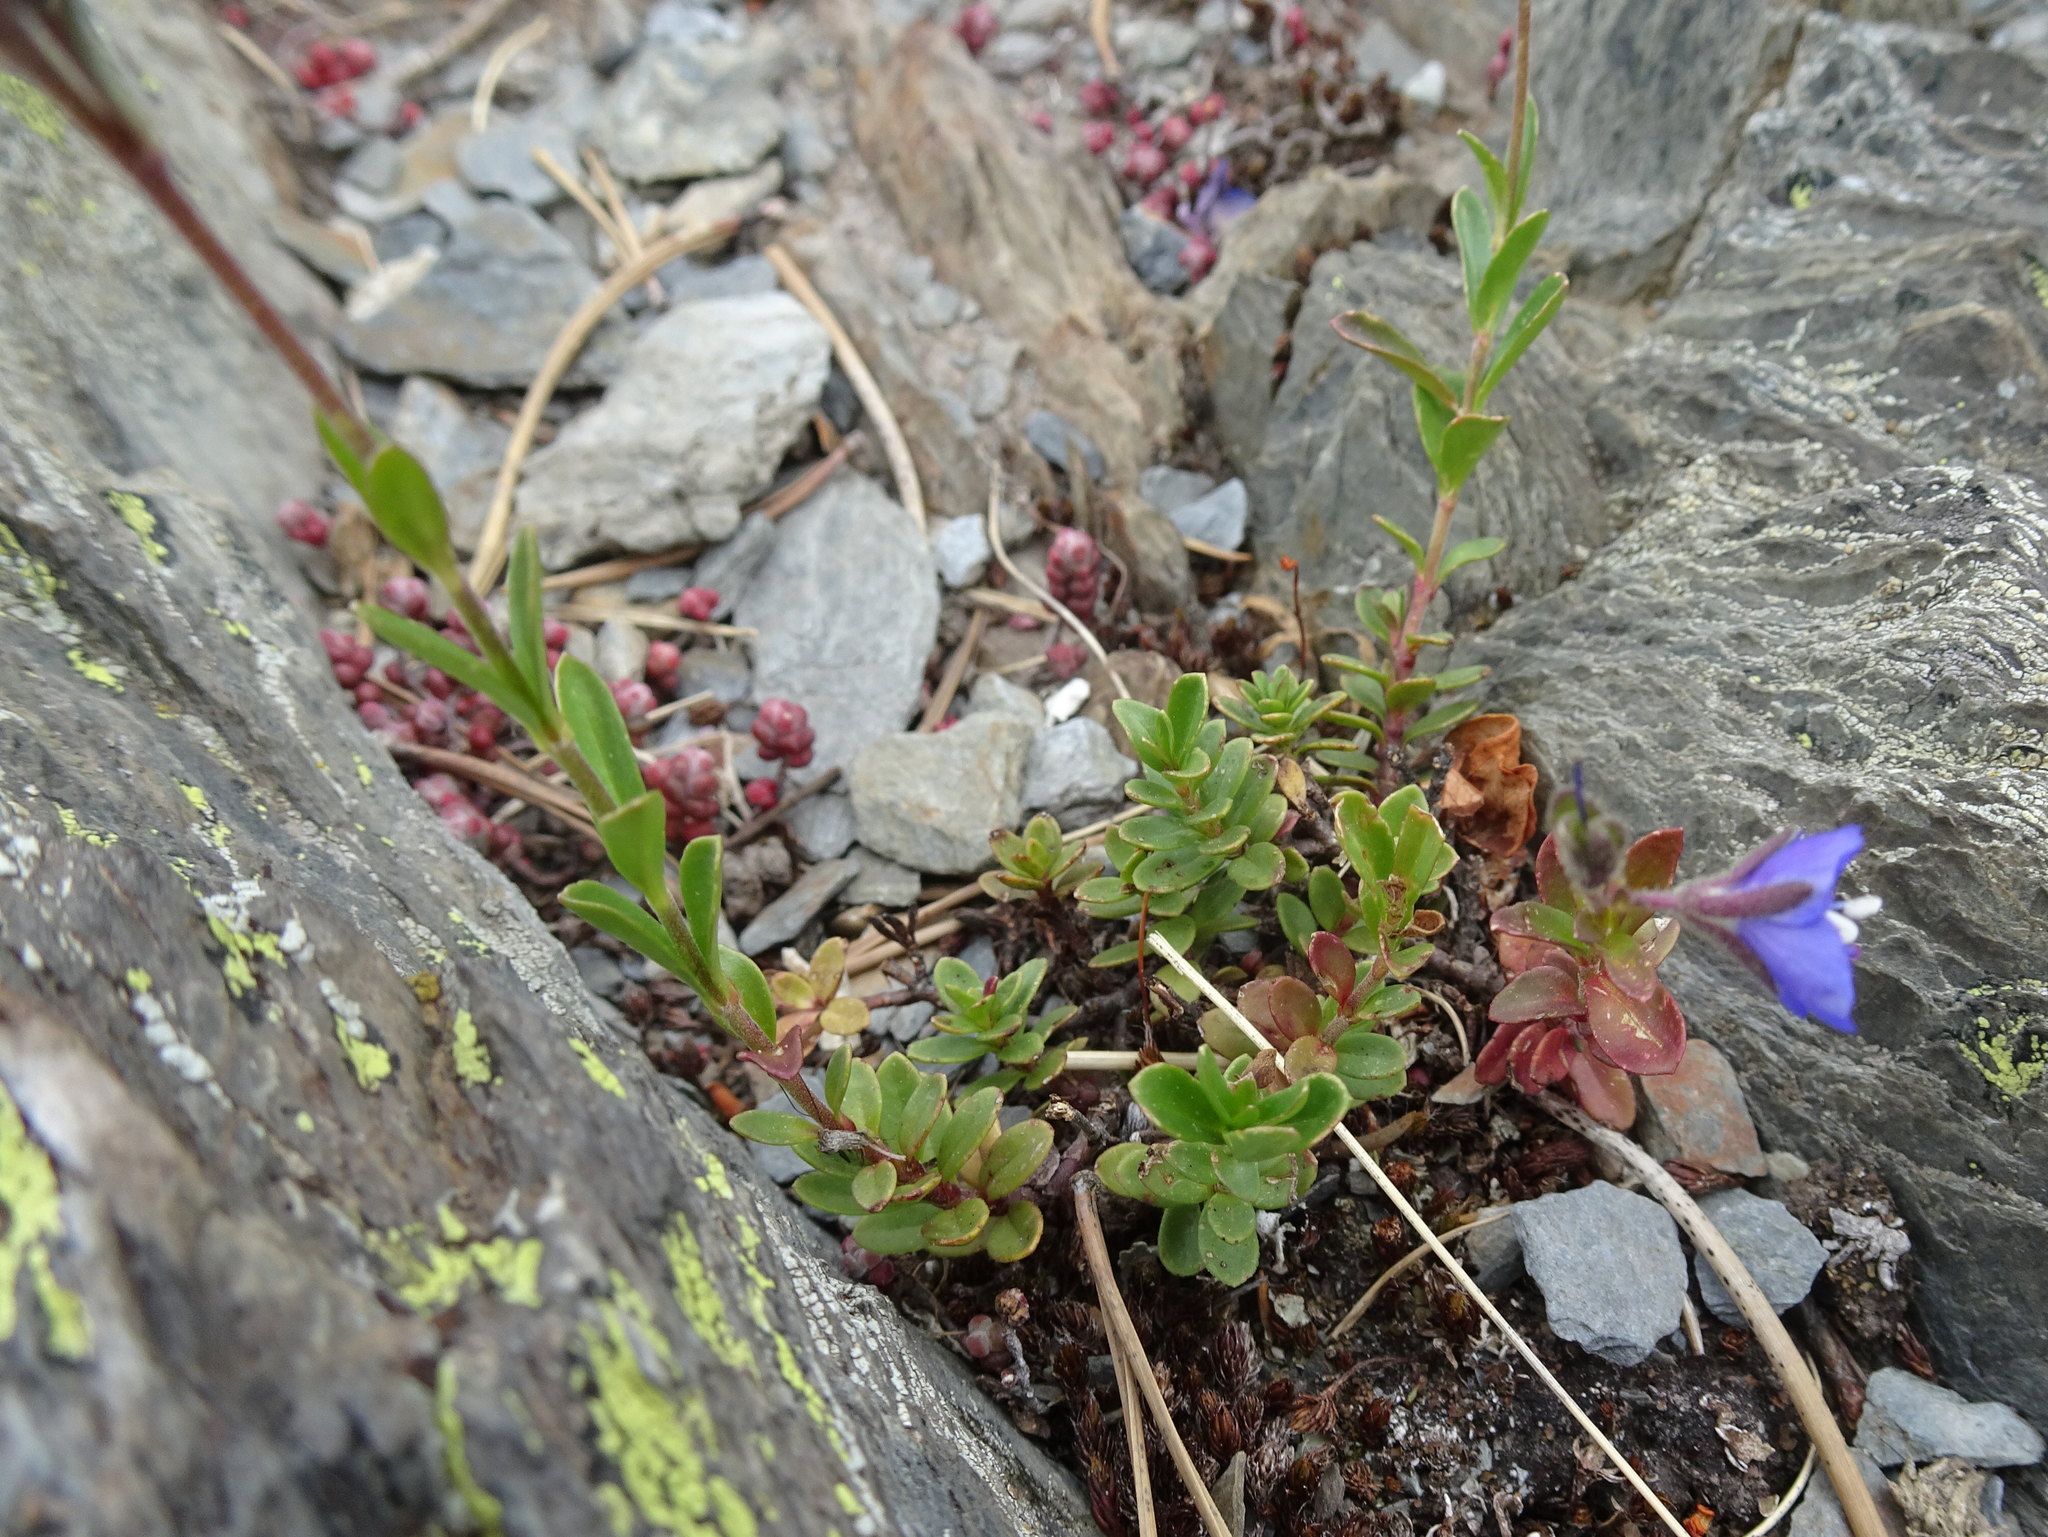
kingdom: Plantae
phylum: Tracheophyta
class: Magnoliopsida
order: Lamiales
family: Plantaginaceae
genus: Veronica
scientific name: Veronica fruticans
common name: Rock speedwell
